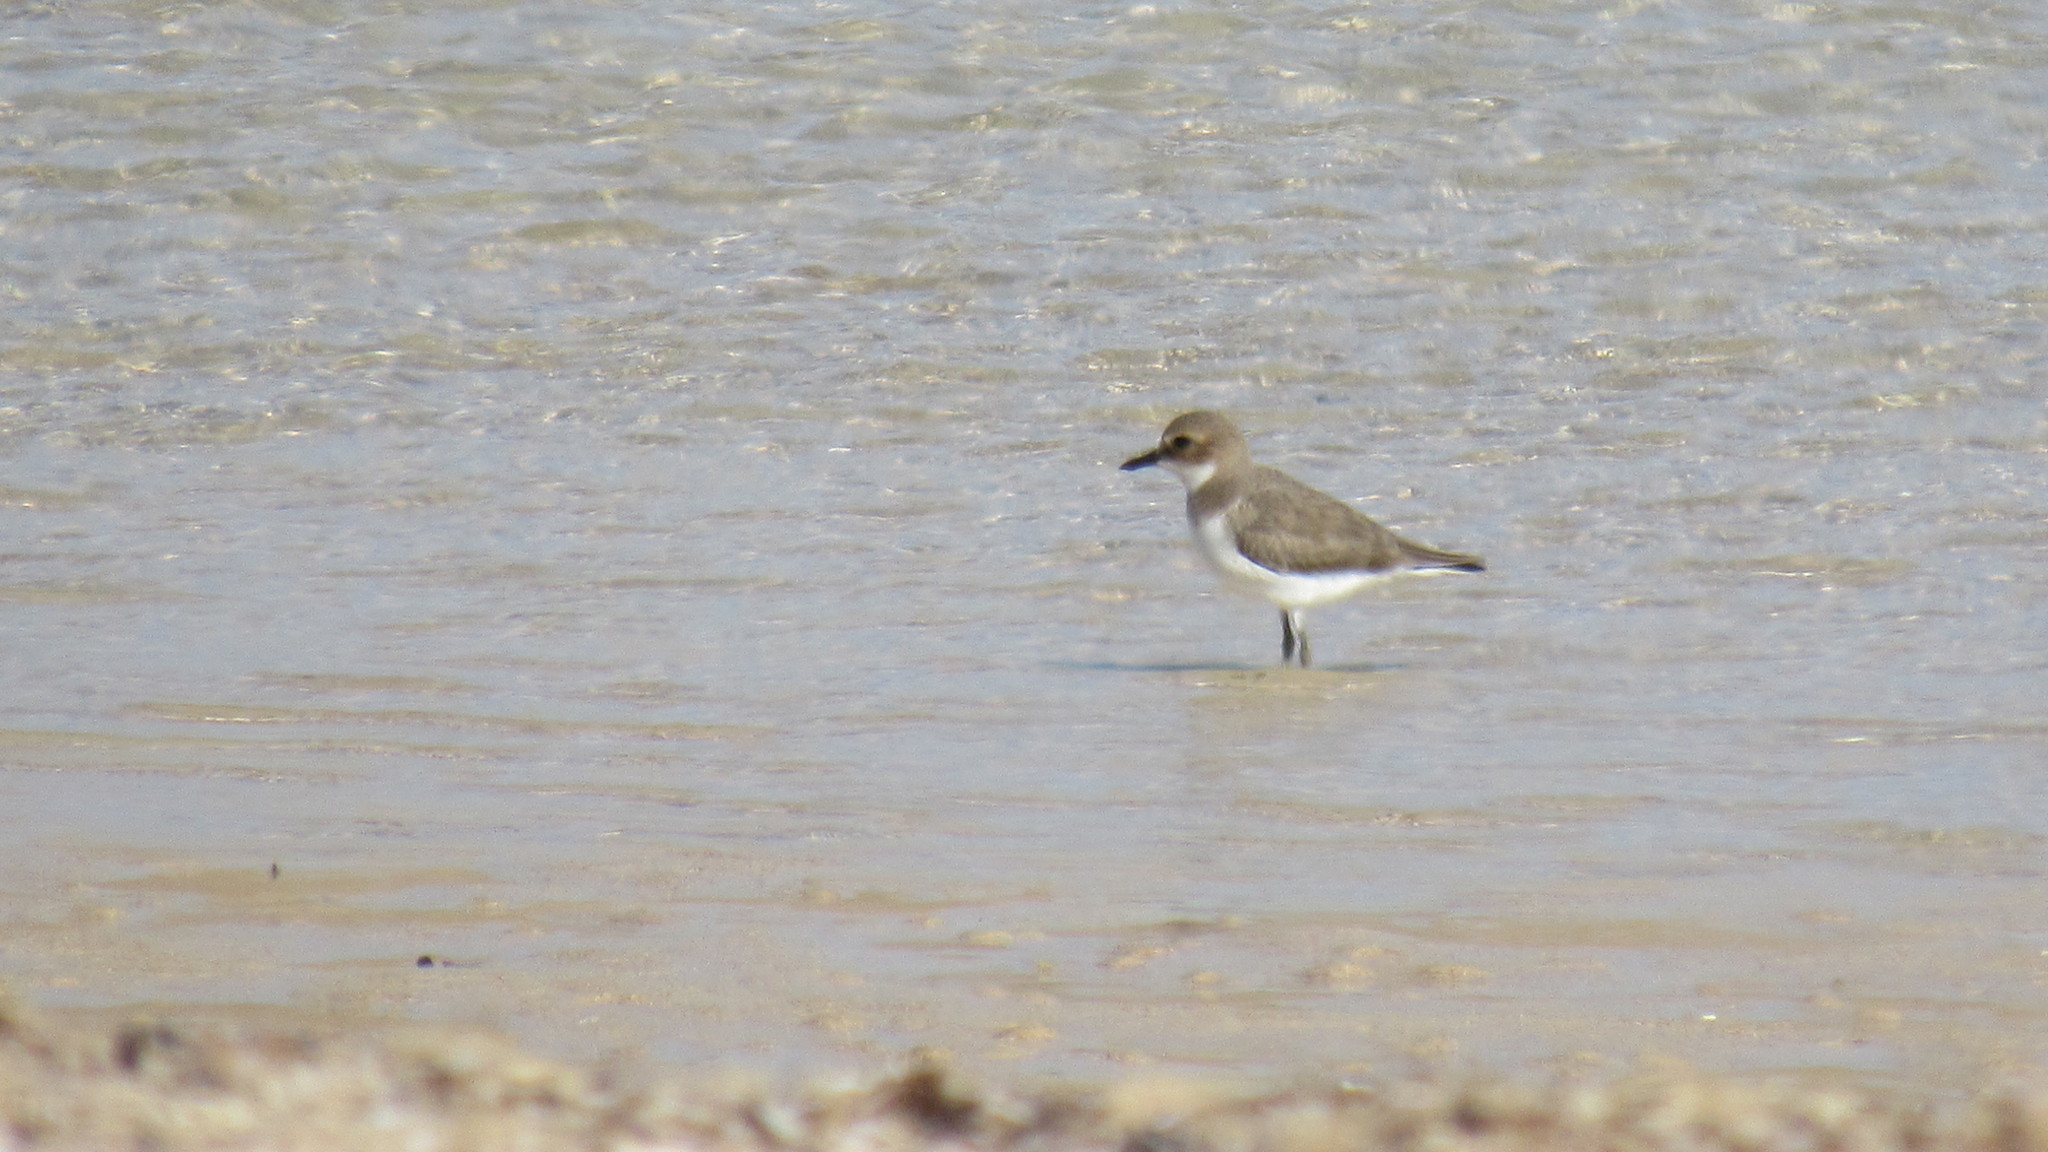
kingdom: Animalia
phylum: Chordata
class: Aves
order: Charadriiformes
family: Charadriidae
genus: Charadrius
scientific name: Charadrius leschenaultii
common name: Greater sand plover
